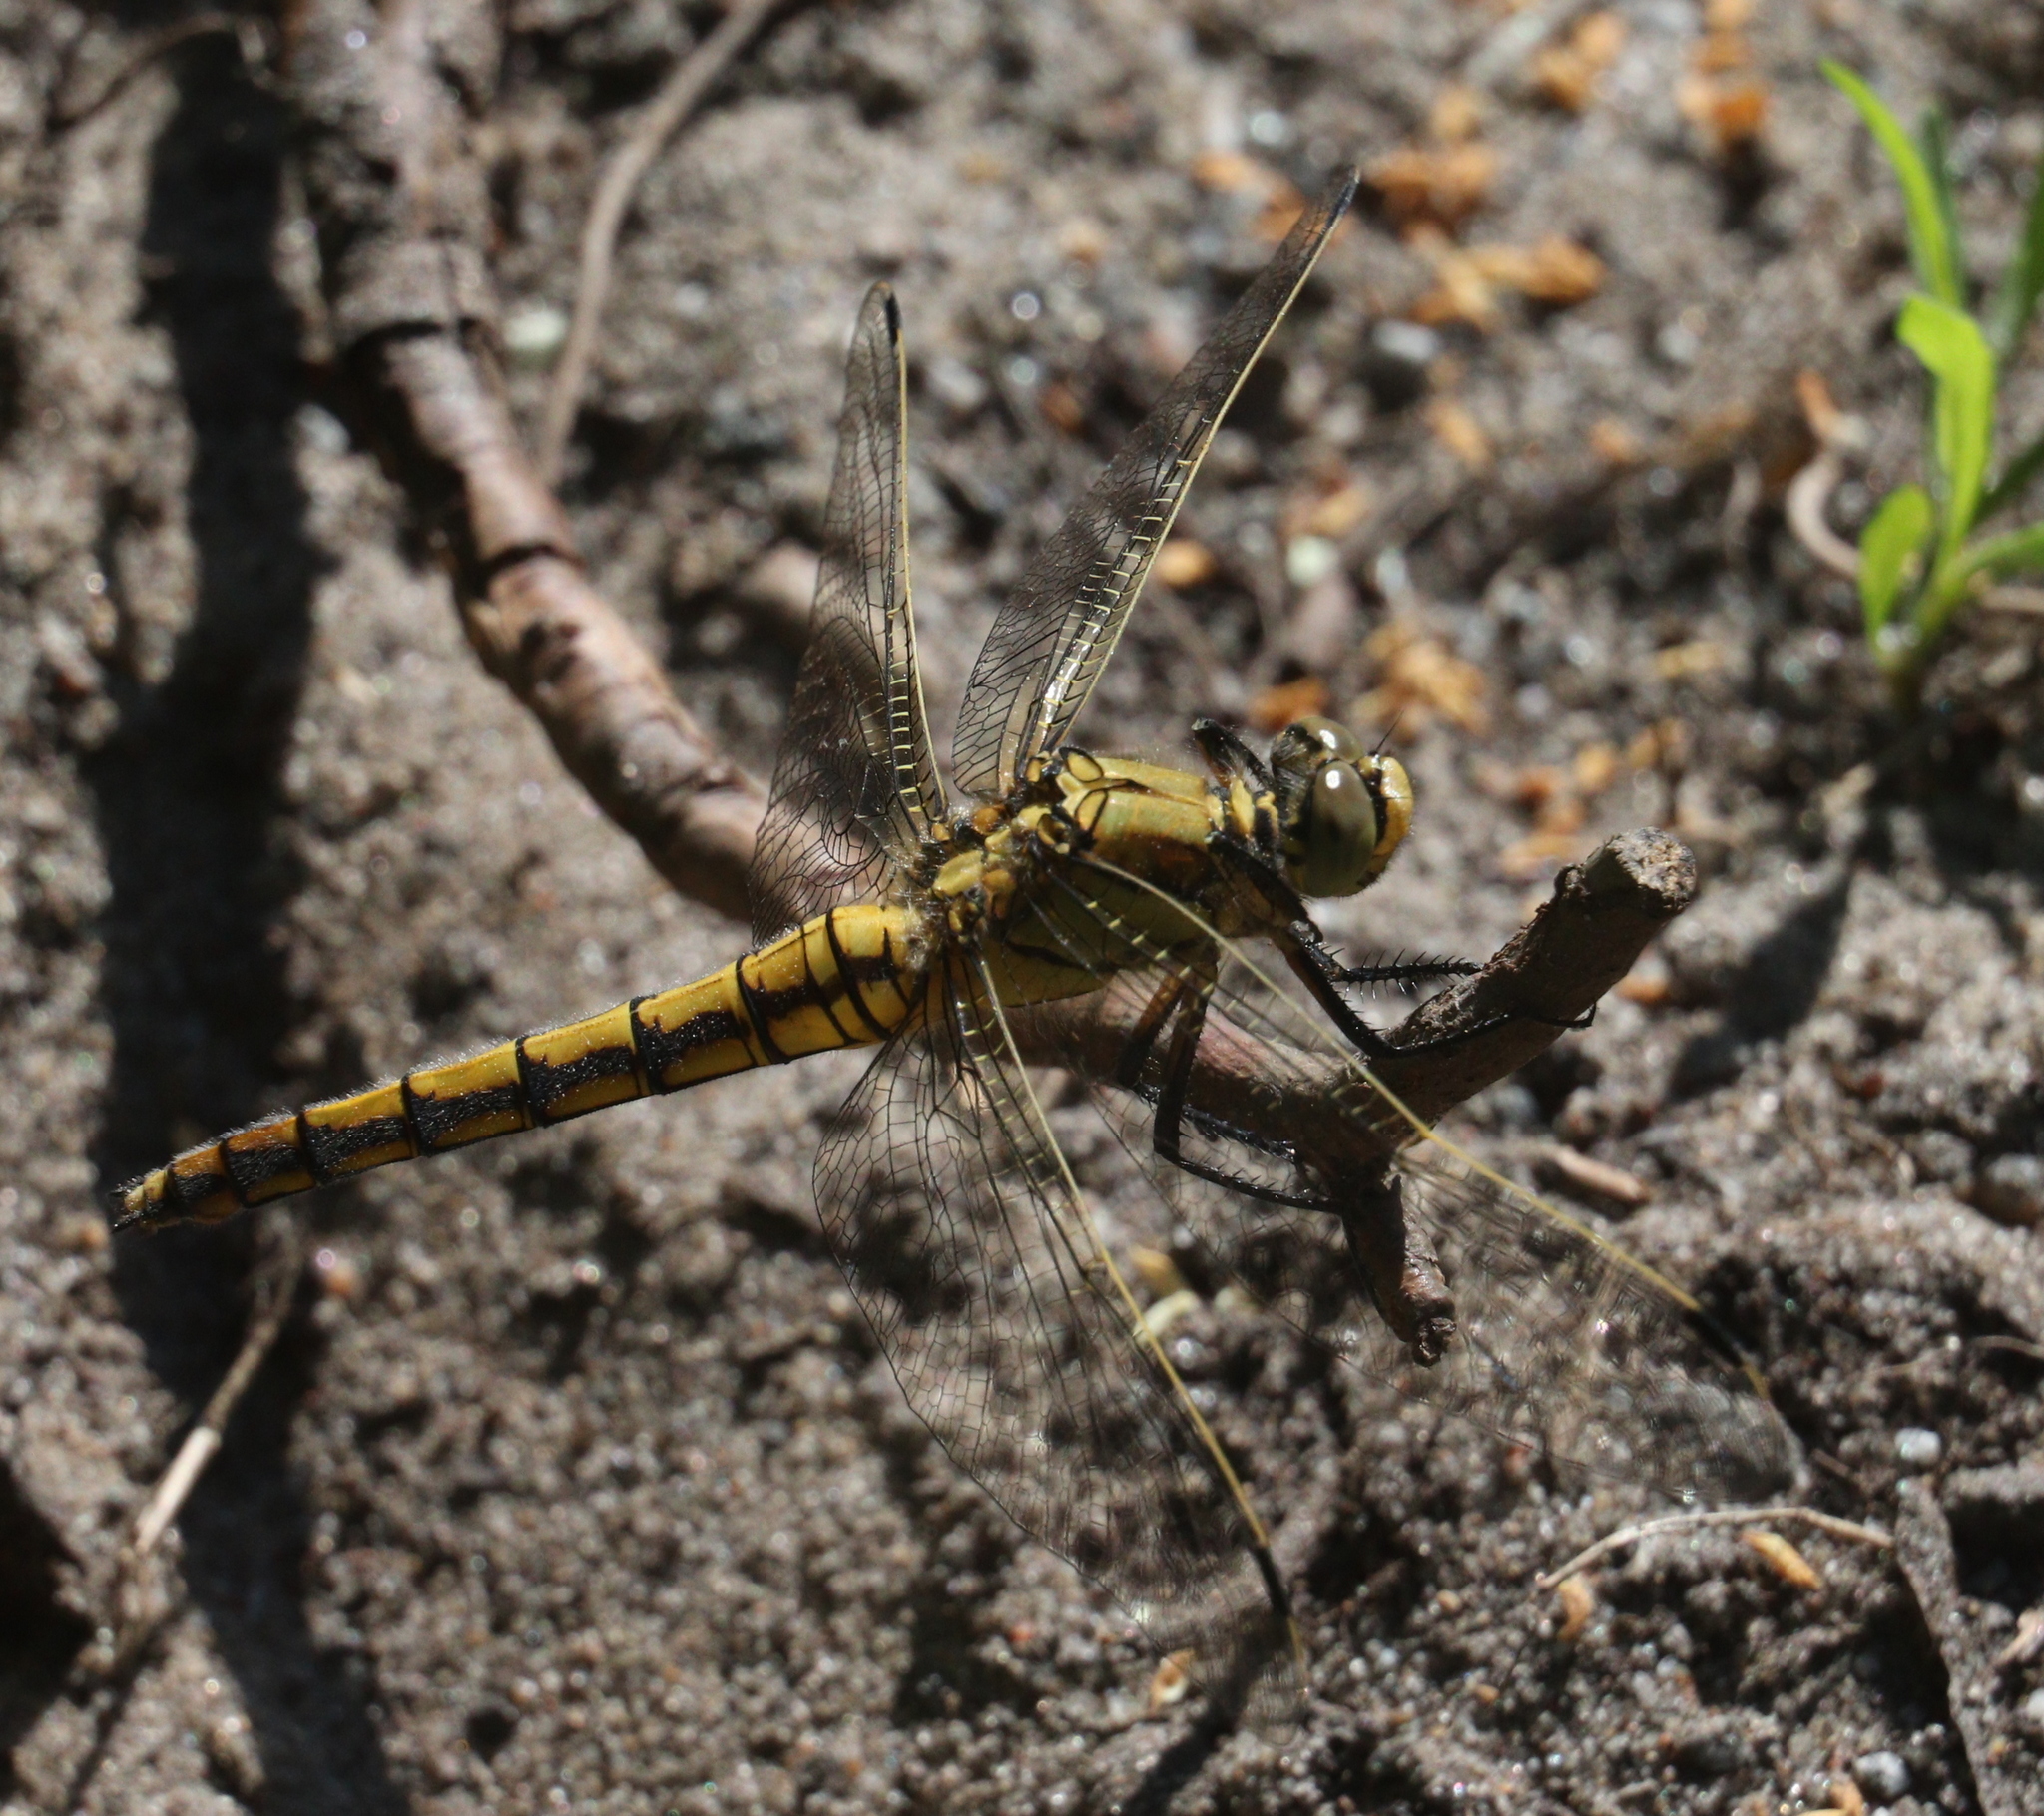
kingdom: Animalia
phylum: Arthropoda
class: Insecta
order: Odonata
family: Libellulidae
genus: Orthetrum
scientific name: Orthetrum cancellatum
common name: Black-tailed skimmer
